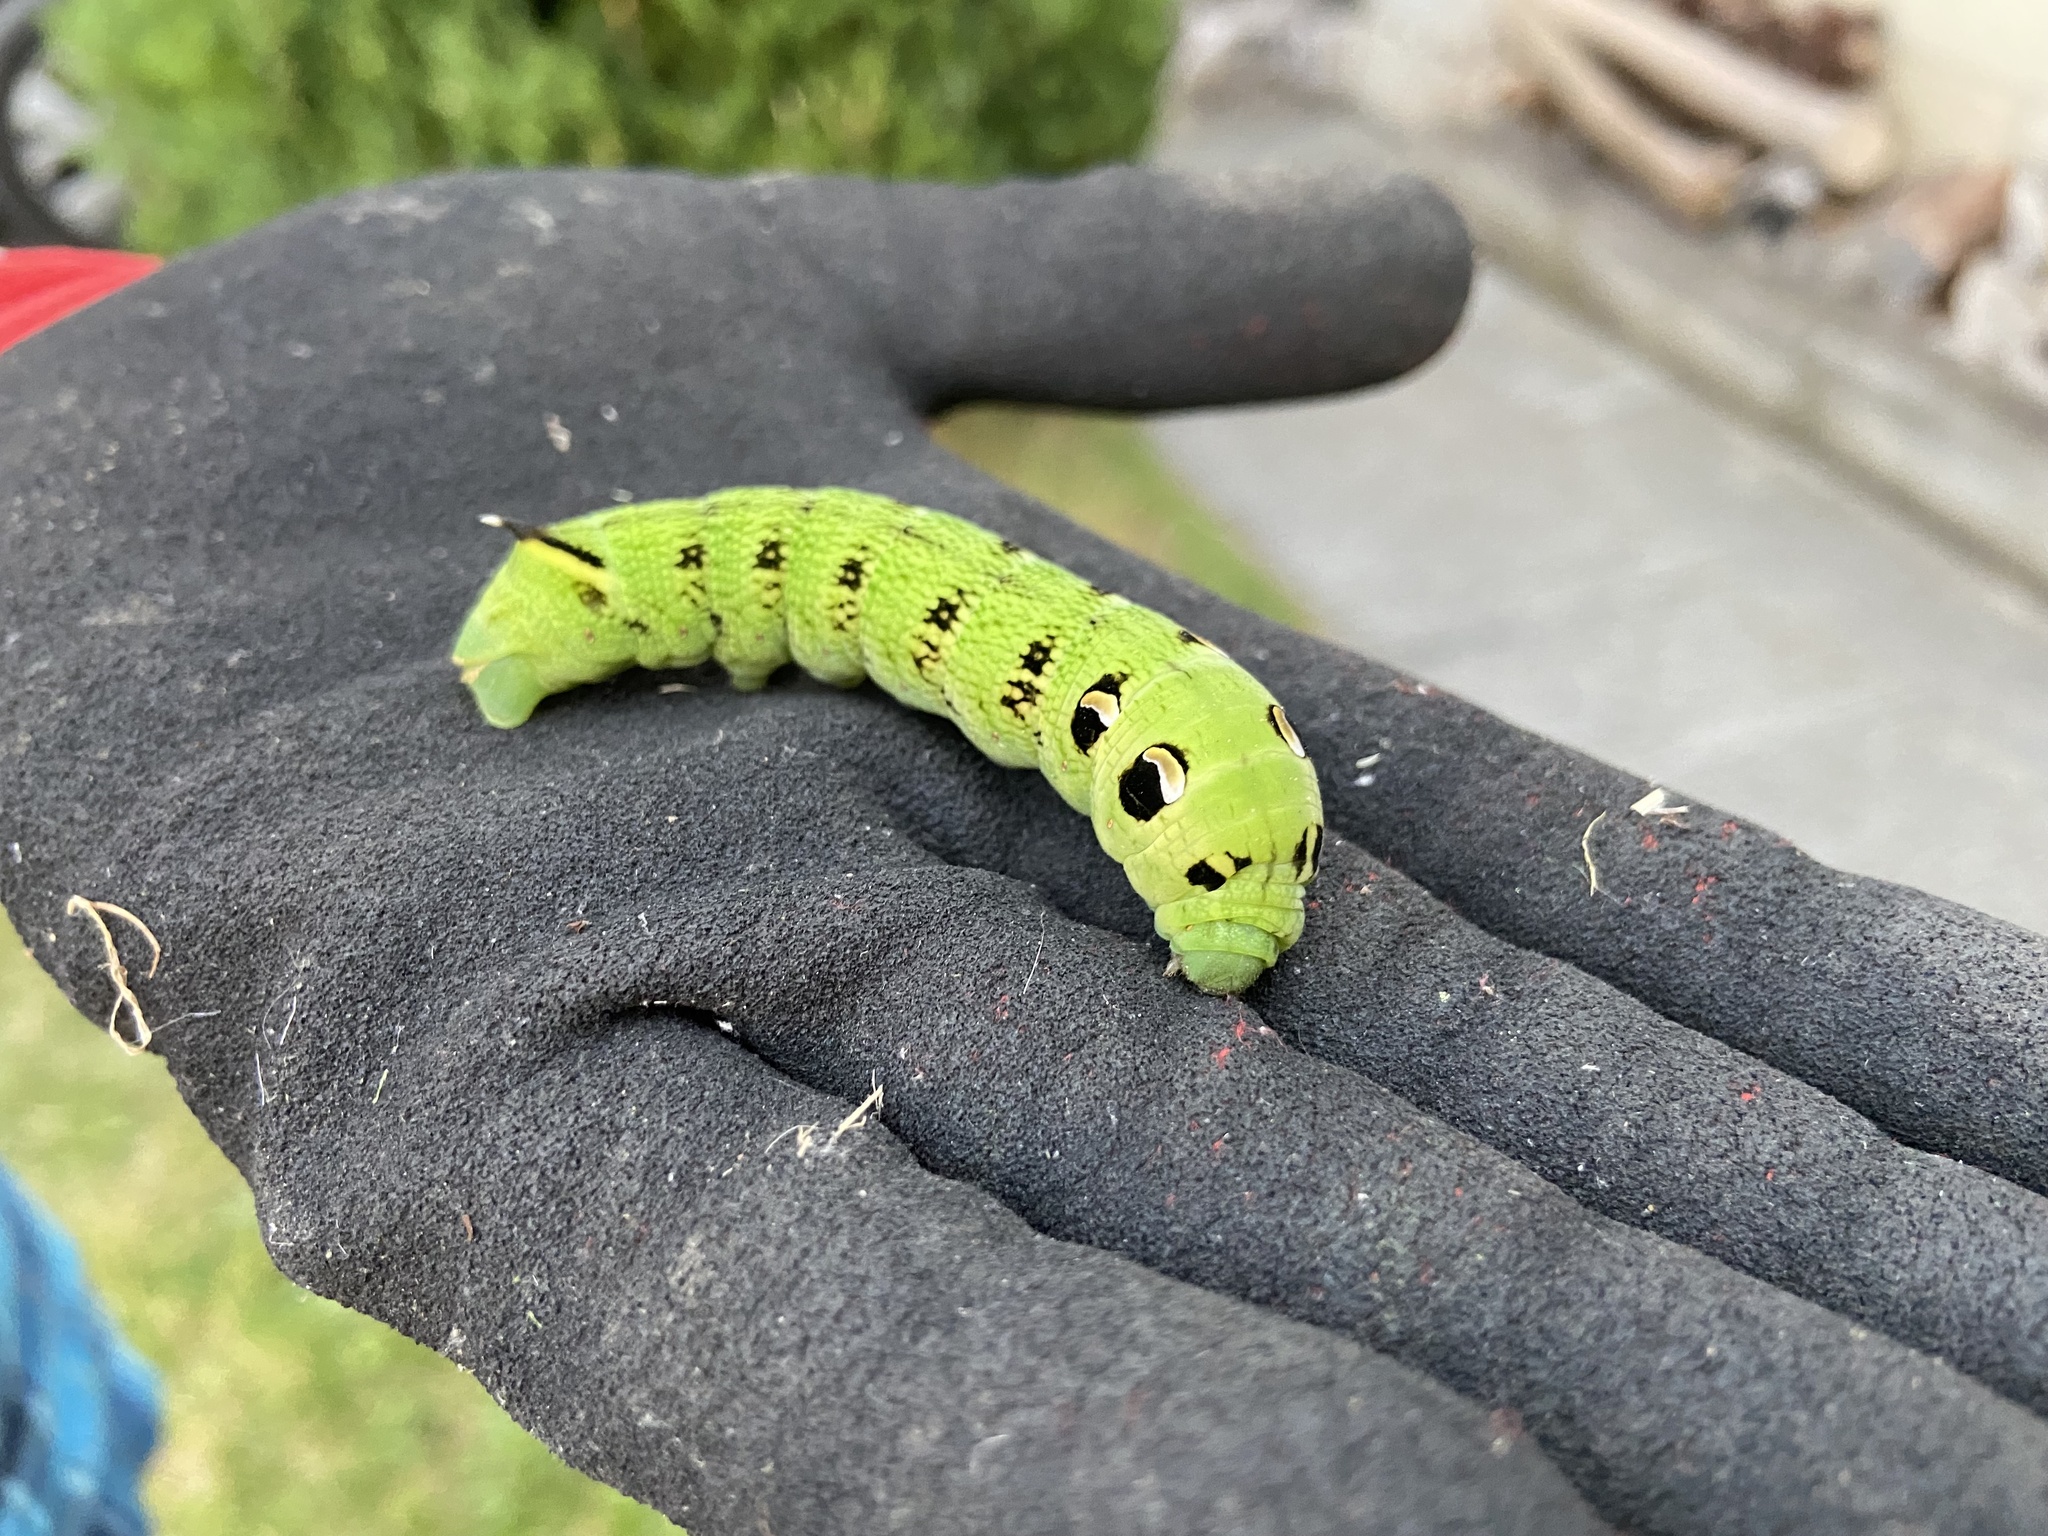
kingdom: Animalia
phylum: Arthropoda
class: Insecta
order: Lepidoptera
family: Sphingidae
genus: Deilephila
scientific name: Deilephila elpenor
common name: Elephant hawk-moth
